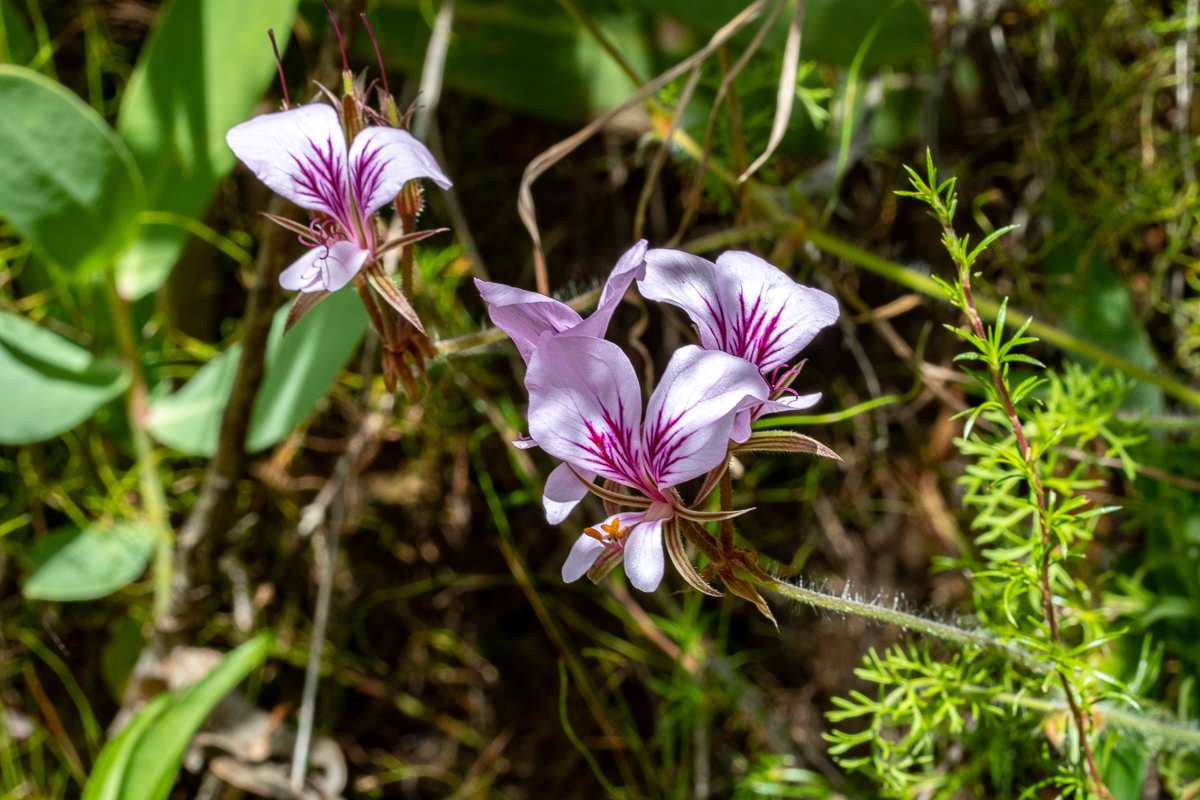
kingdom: Plantae
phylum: Tracheophyta
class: Magnoliopsida
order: Geraniales
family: Geraniaceae
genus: Pelargonium
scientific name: Pelargonium myrrhifolium
